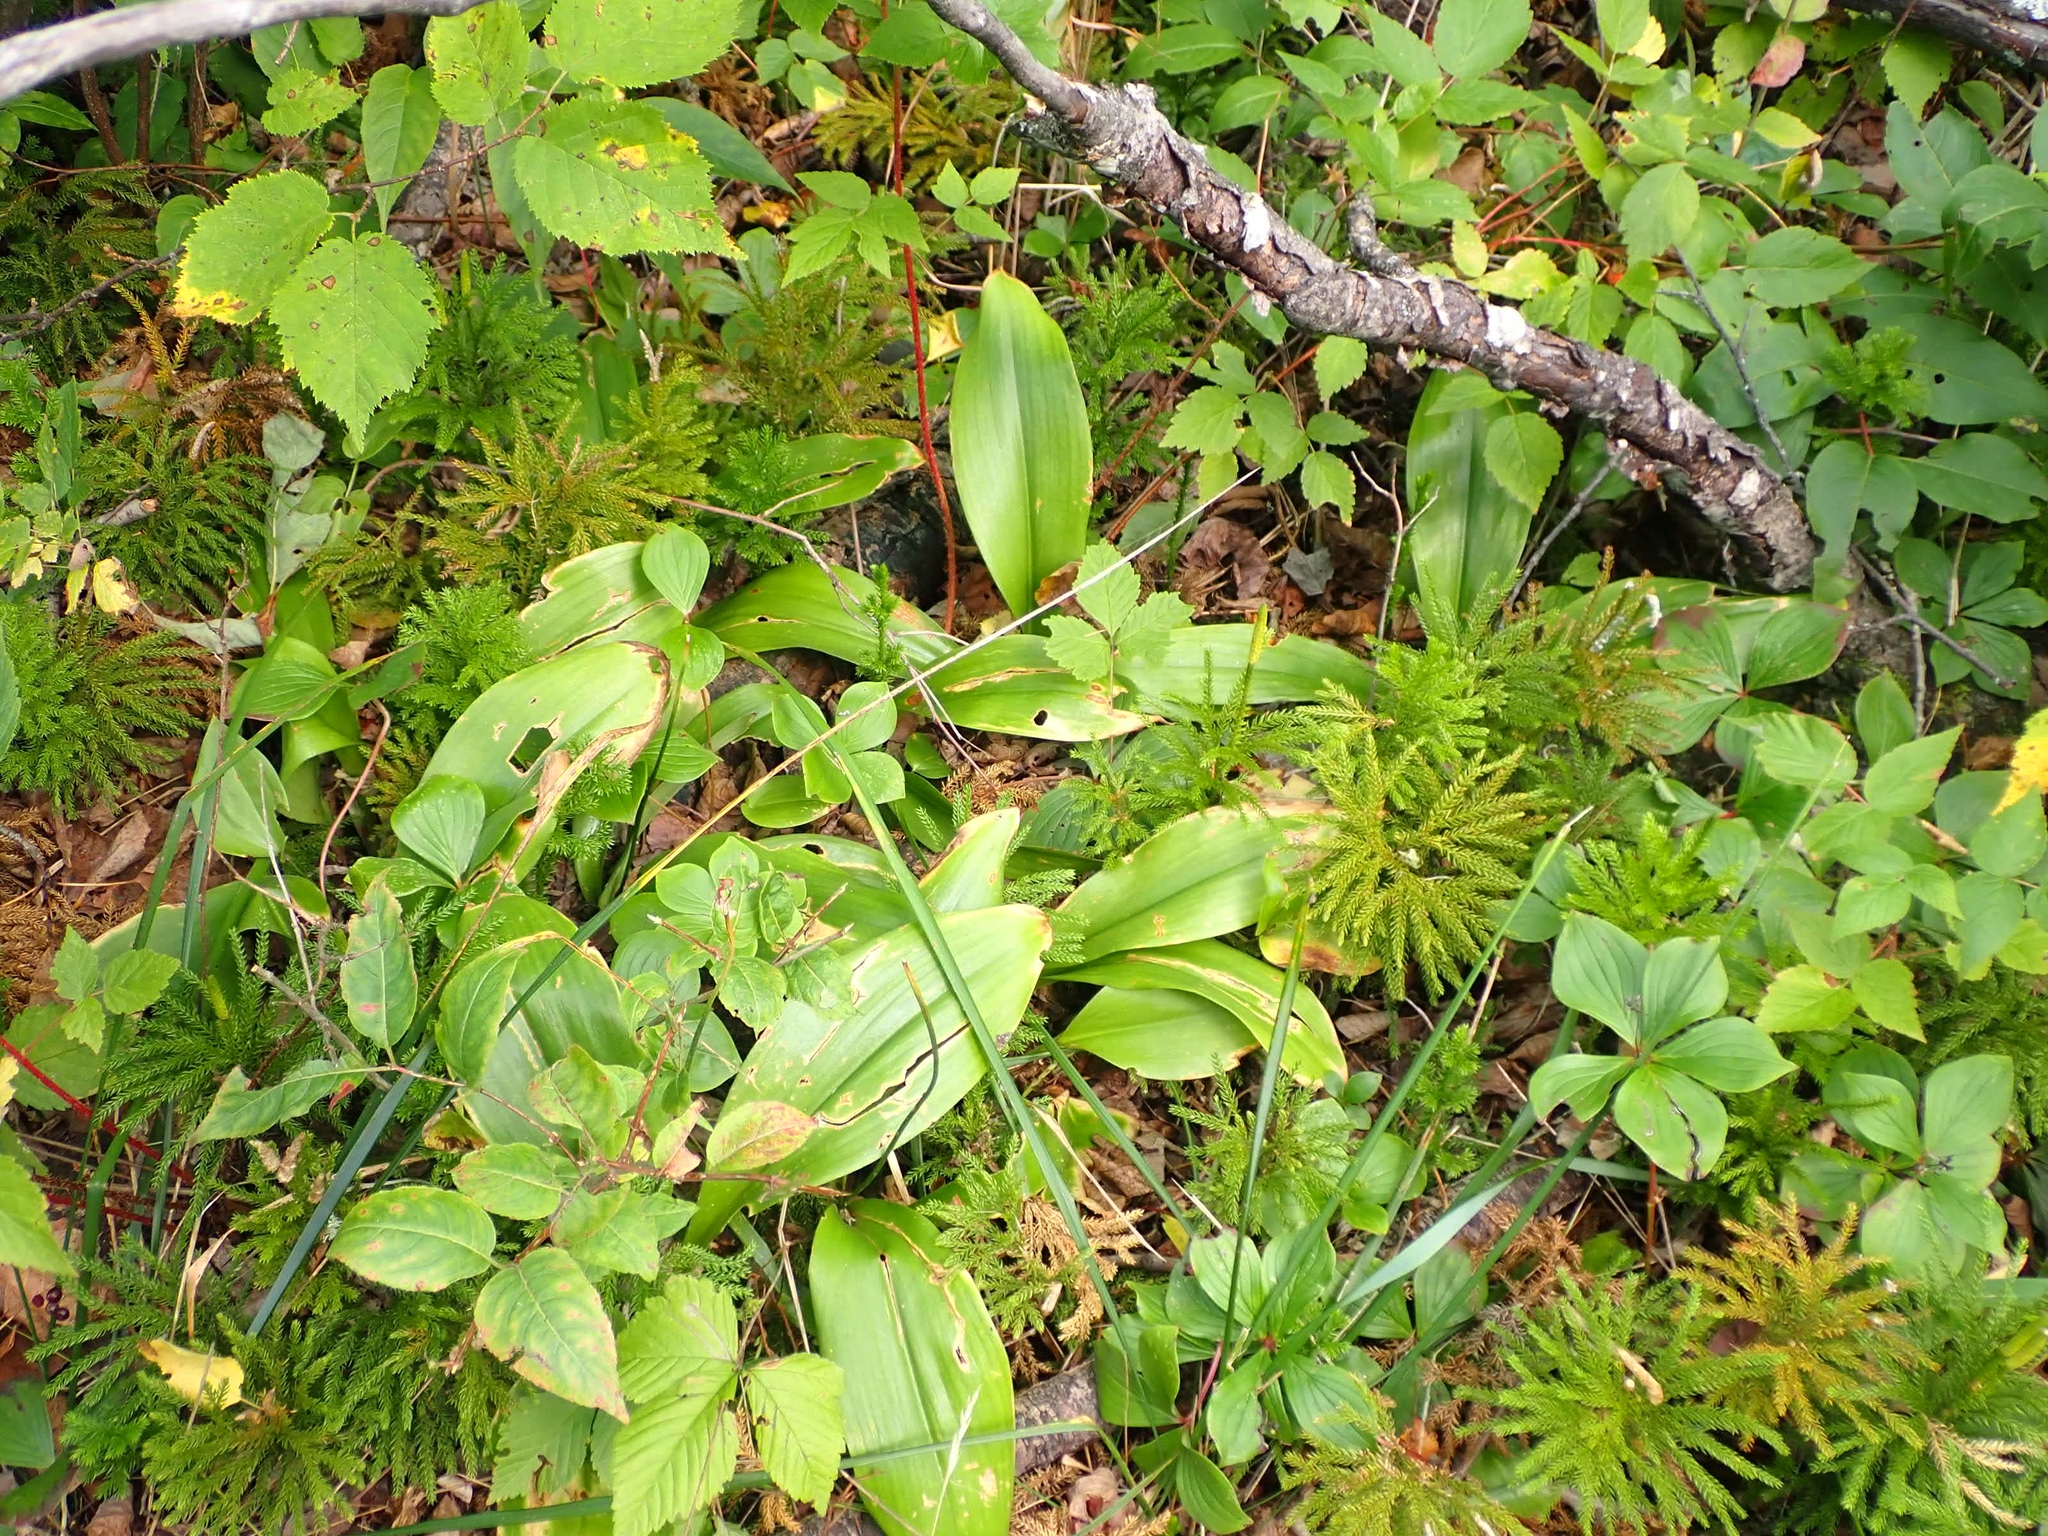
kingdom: Plantae
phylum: Tracheophyta
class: Liliopsida
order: Liliales
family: Liliaceae
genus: Clintonia
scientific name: Clintonia borealis
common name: Yellow clintonia
